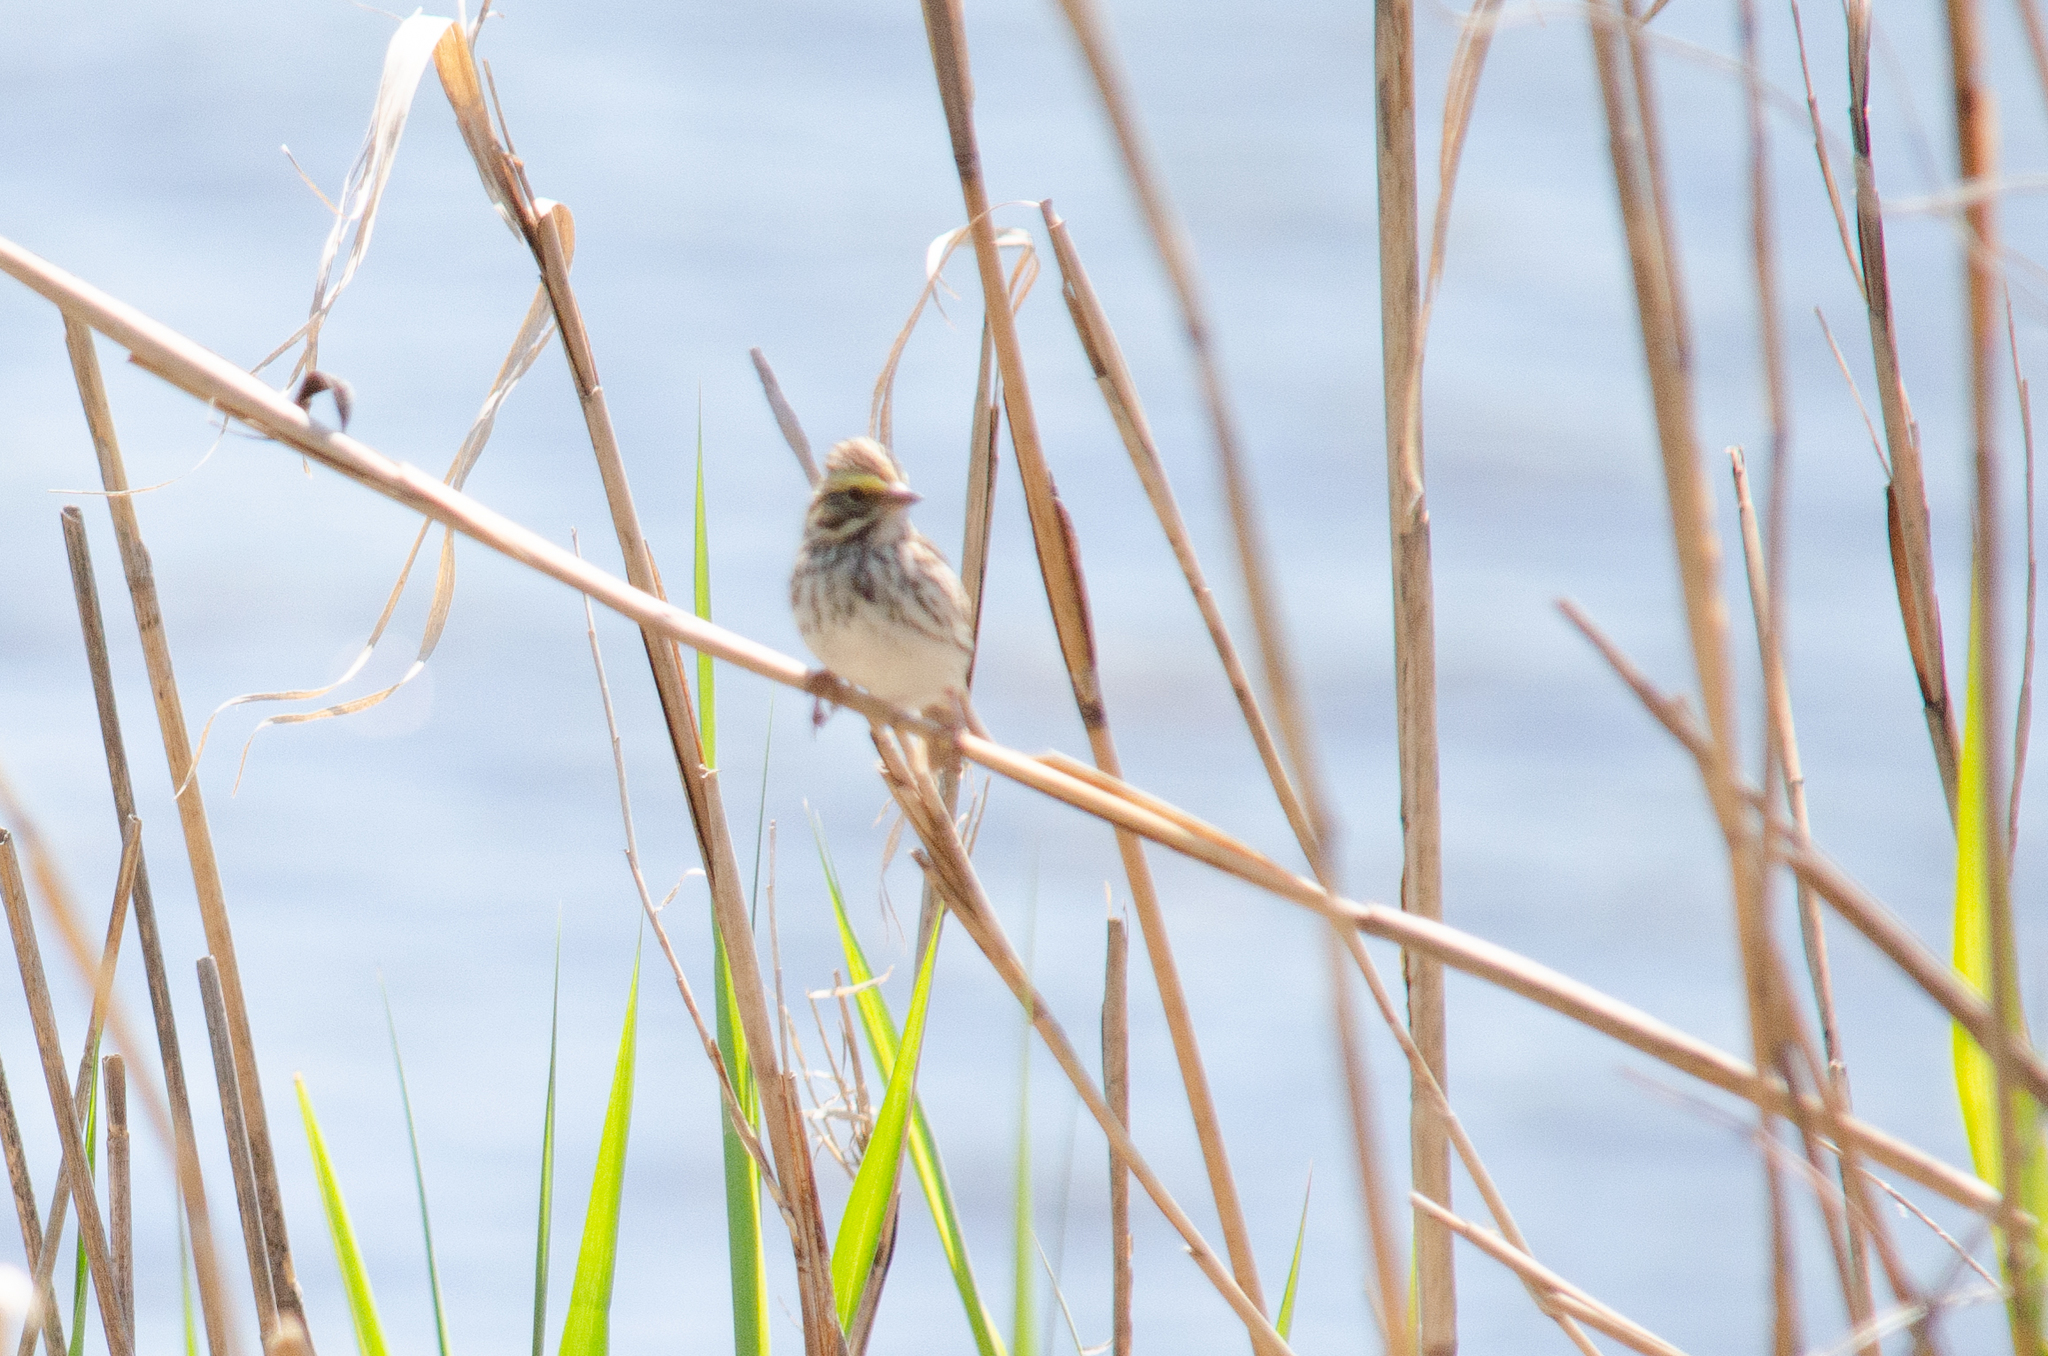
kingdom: Animalia
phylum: Chordata
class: Aves
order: Passeriformes
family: Passerellidae
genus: Passerculus
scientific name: Passerculus sandwichensis
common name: Savannah sparrow
